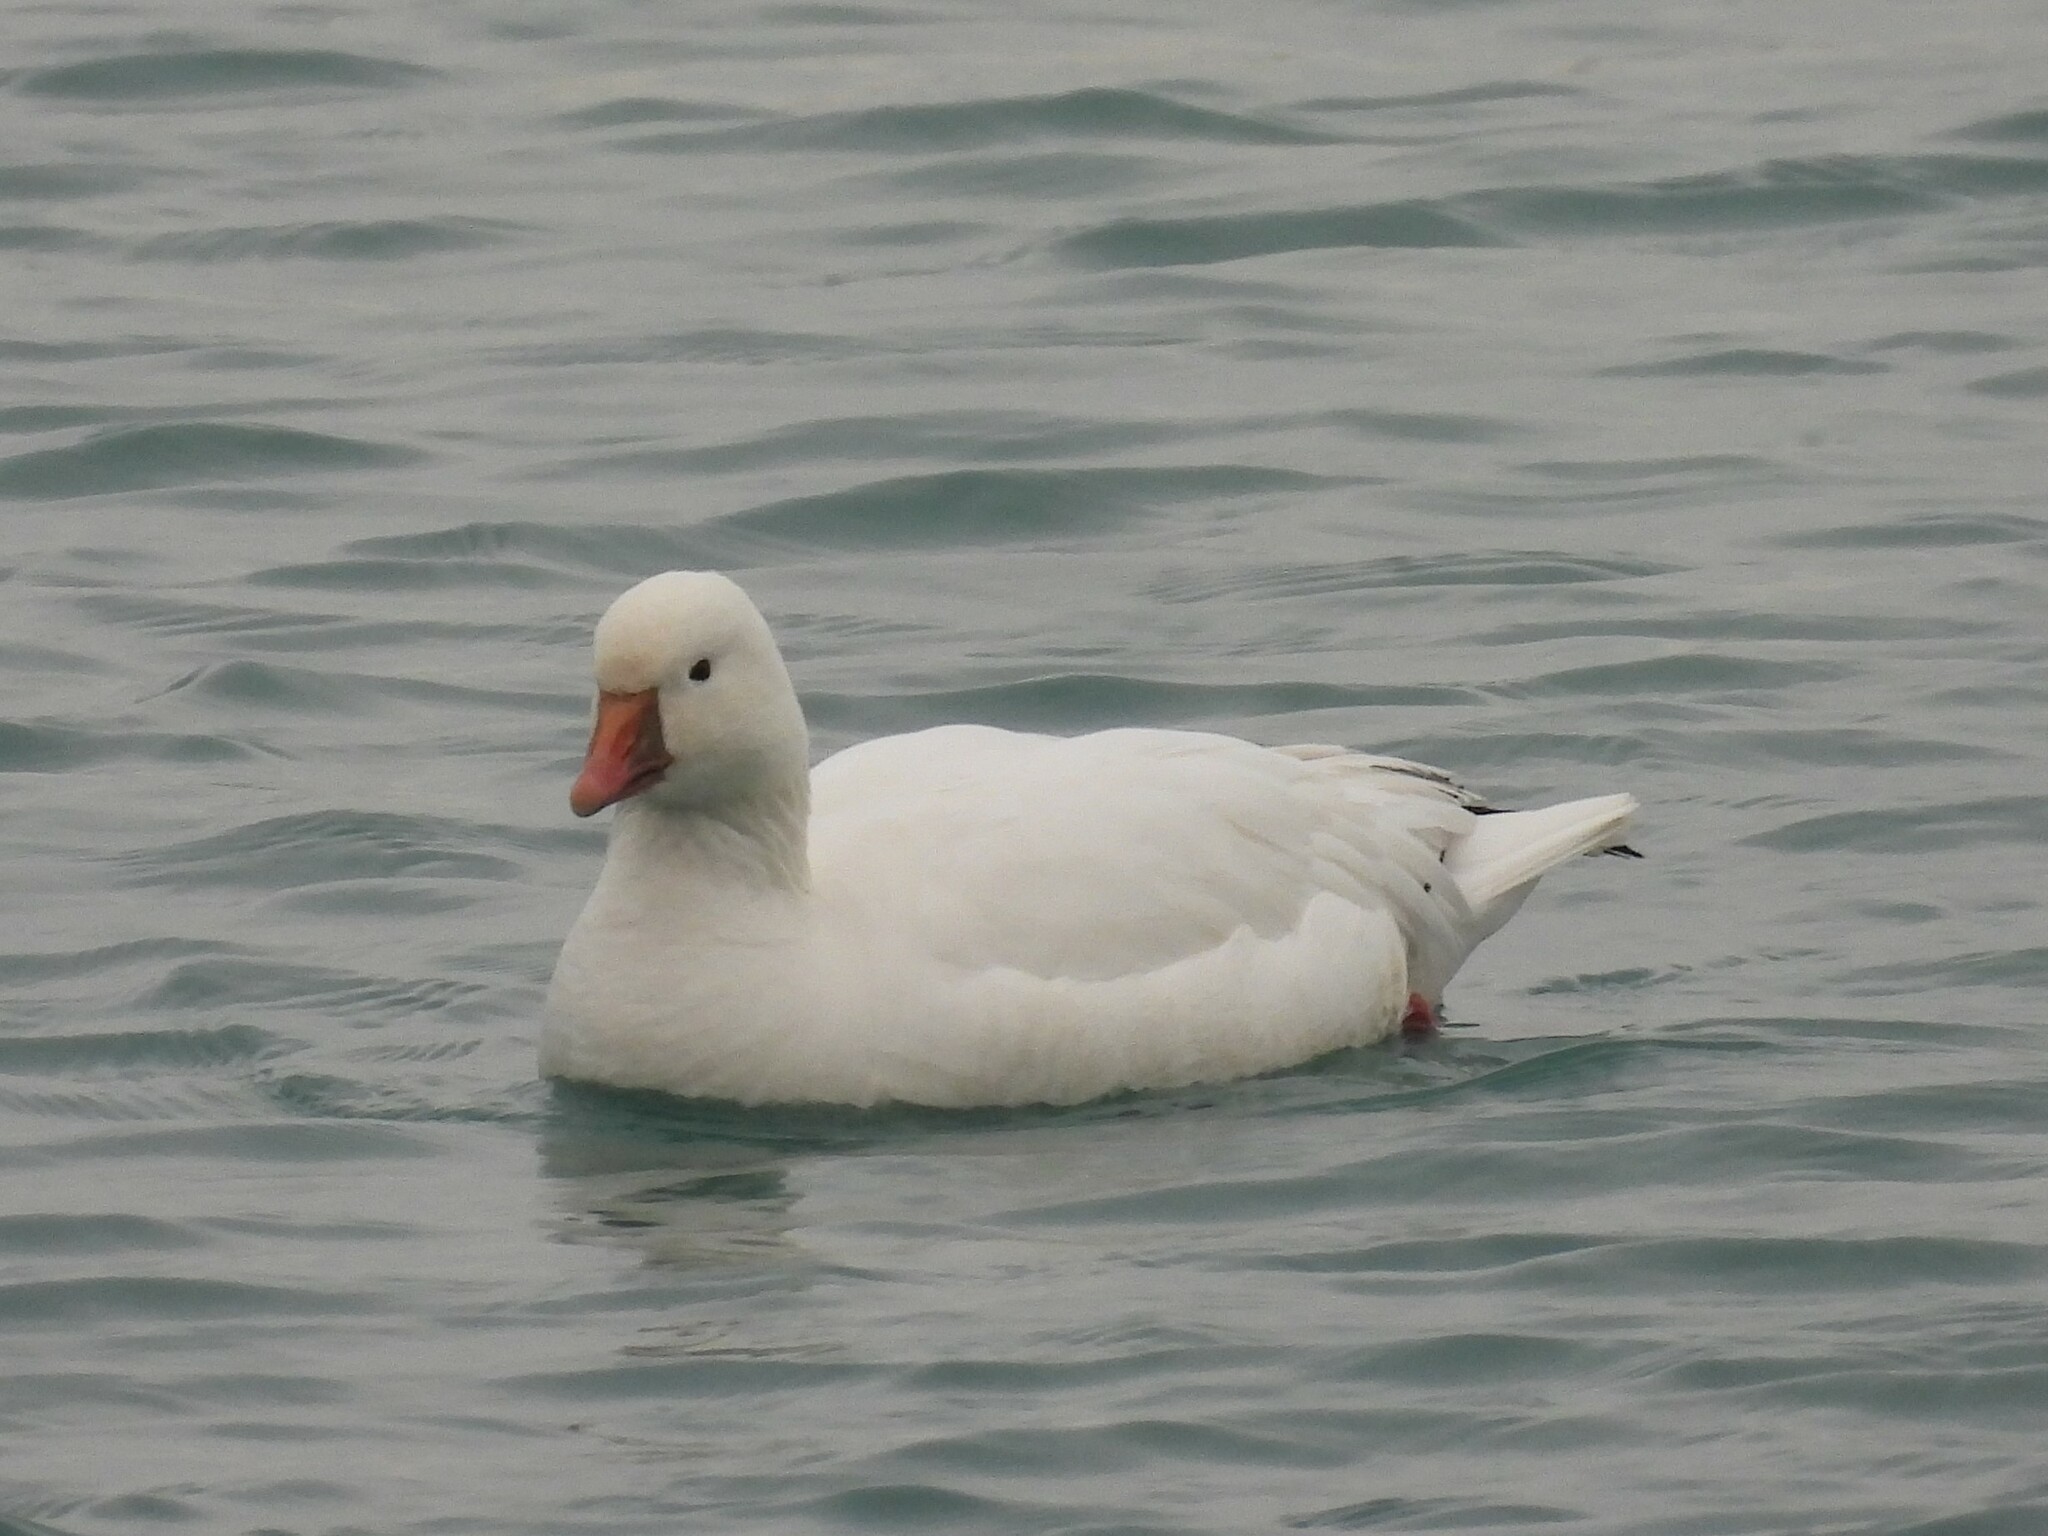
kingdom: Animalia
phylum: Chordata
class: Aves
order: Anseriformes
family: Anatidae
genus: Anser
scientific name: Anser rossii
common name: Ross's goose
